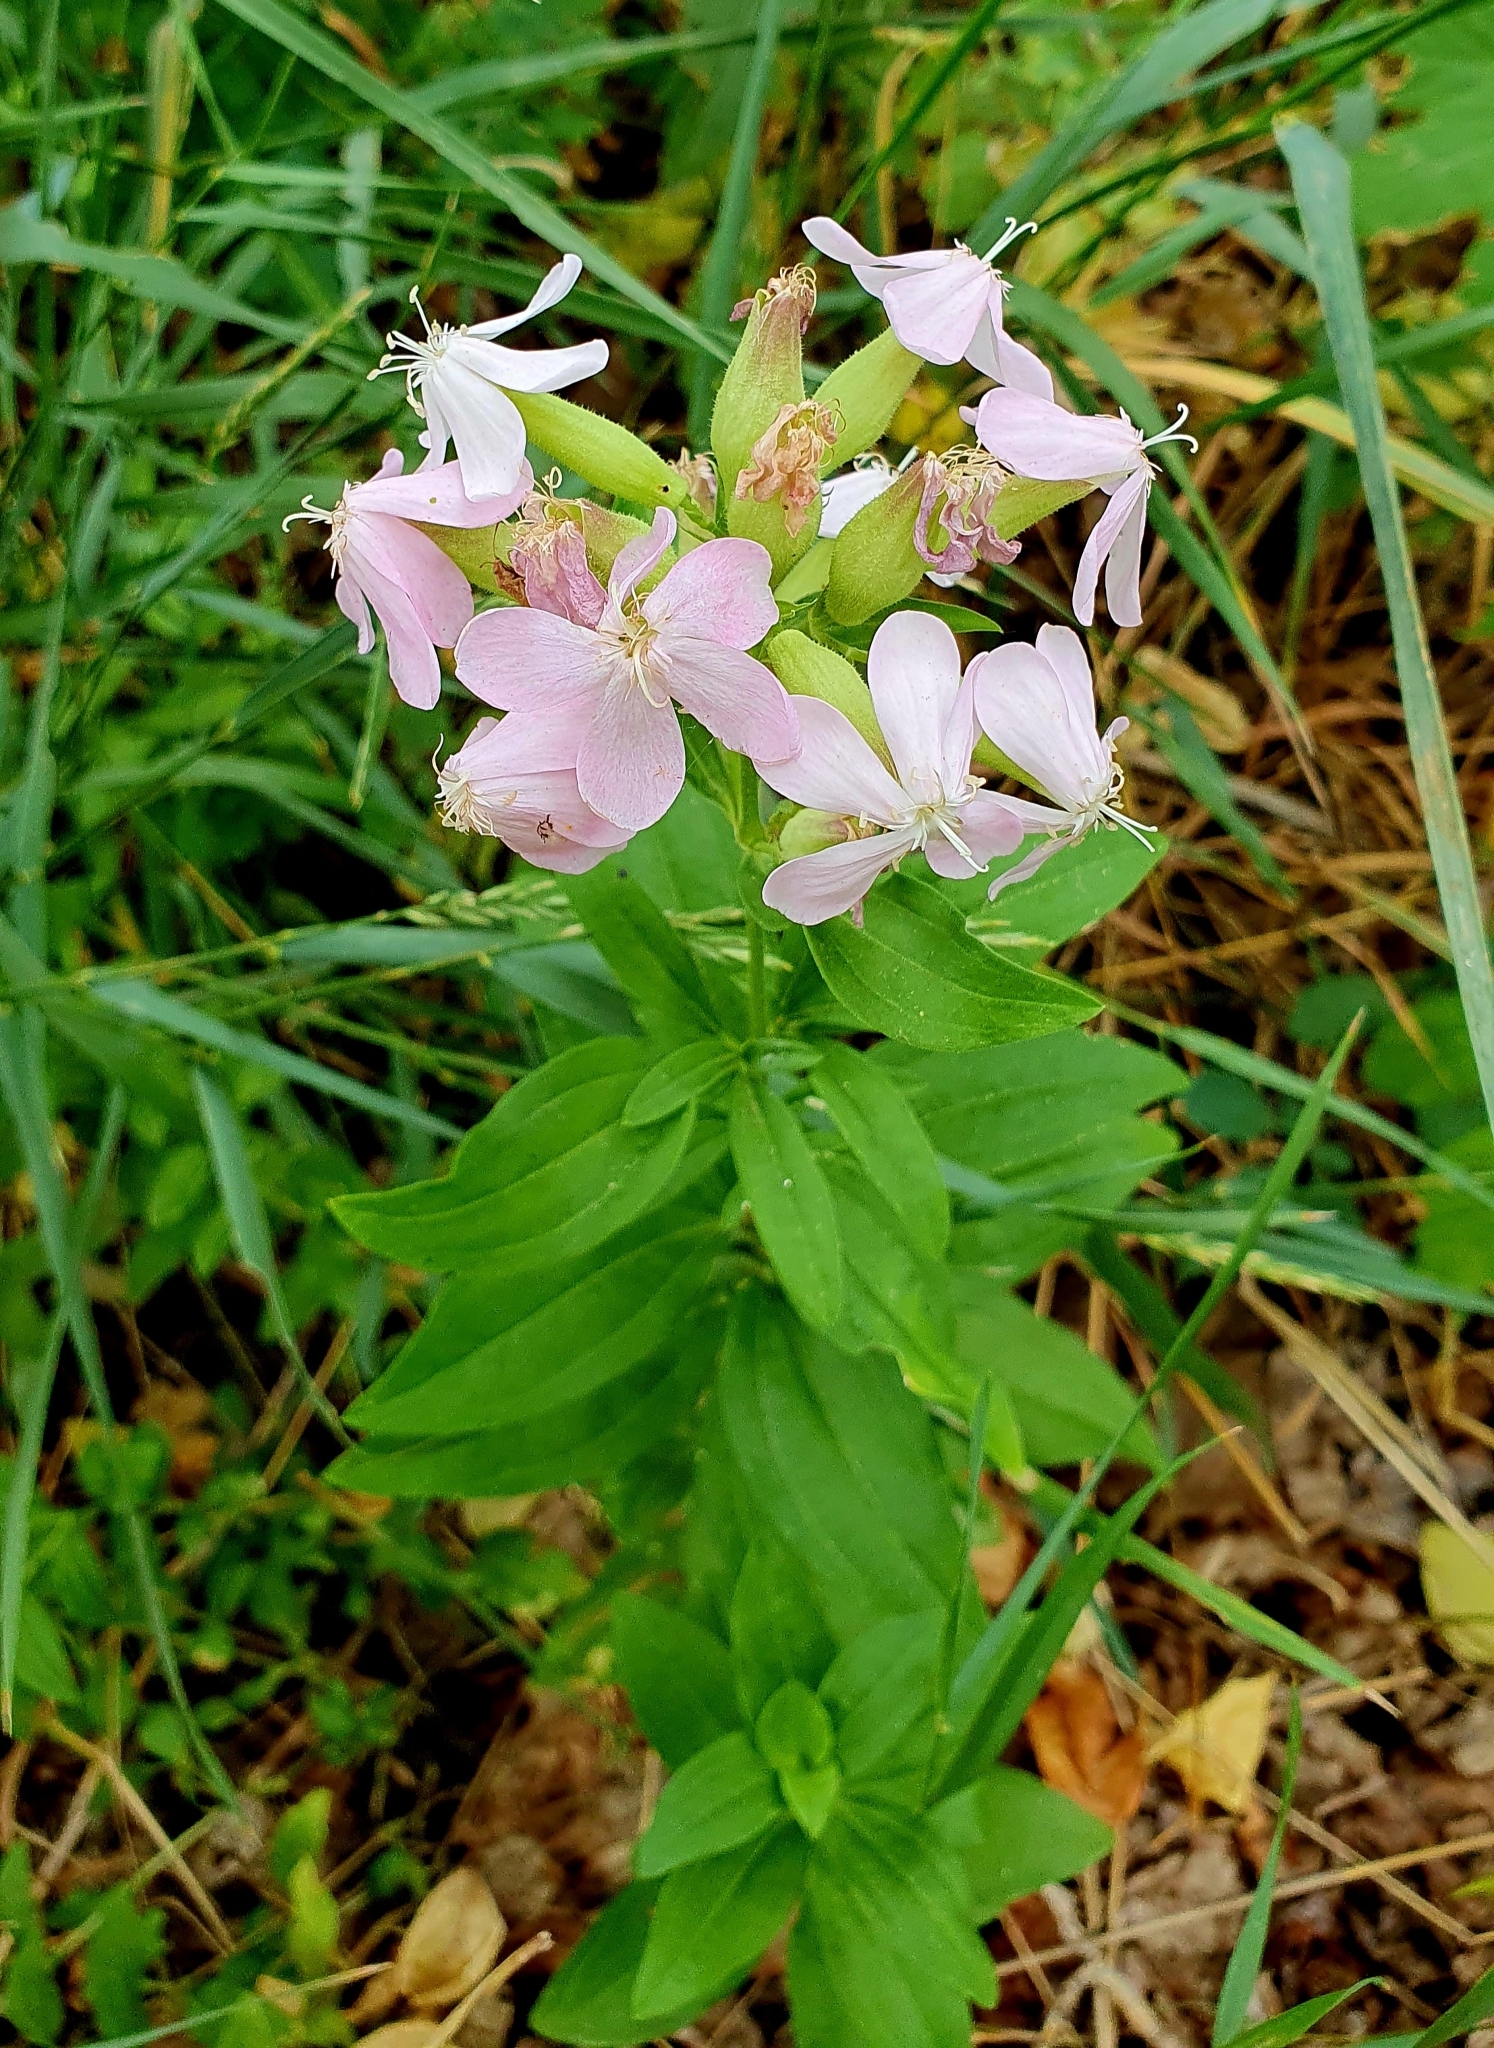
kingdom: Plantae
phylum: Tracheophyta
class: Magnoliopsida
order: Caryophyllales
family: Caryophyllaceae
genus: Saponaria
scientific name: Saponaria officinalis
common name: Soapwort
